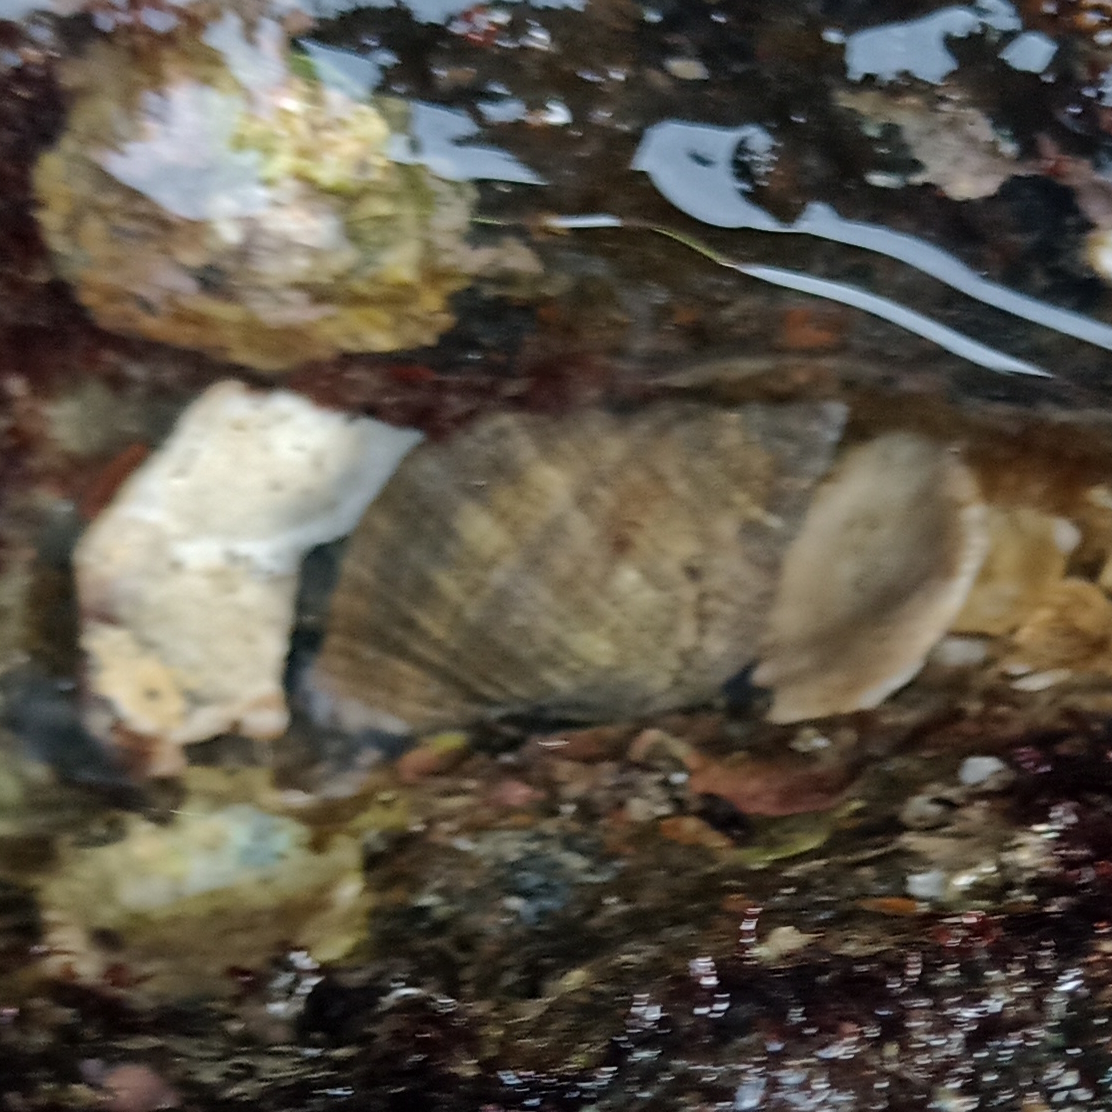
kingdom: Animalia
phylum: Mollusca
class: Gastropoda
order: Neogastropoda
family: Muricidae
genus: Stramonita
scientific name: Stramonita brasiliensis
